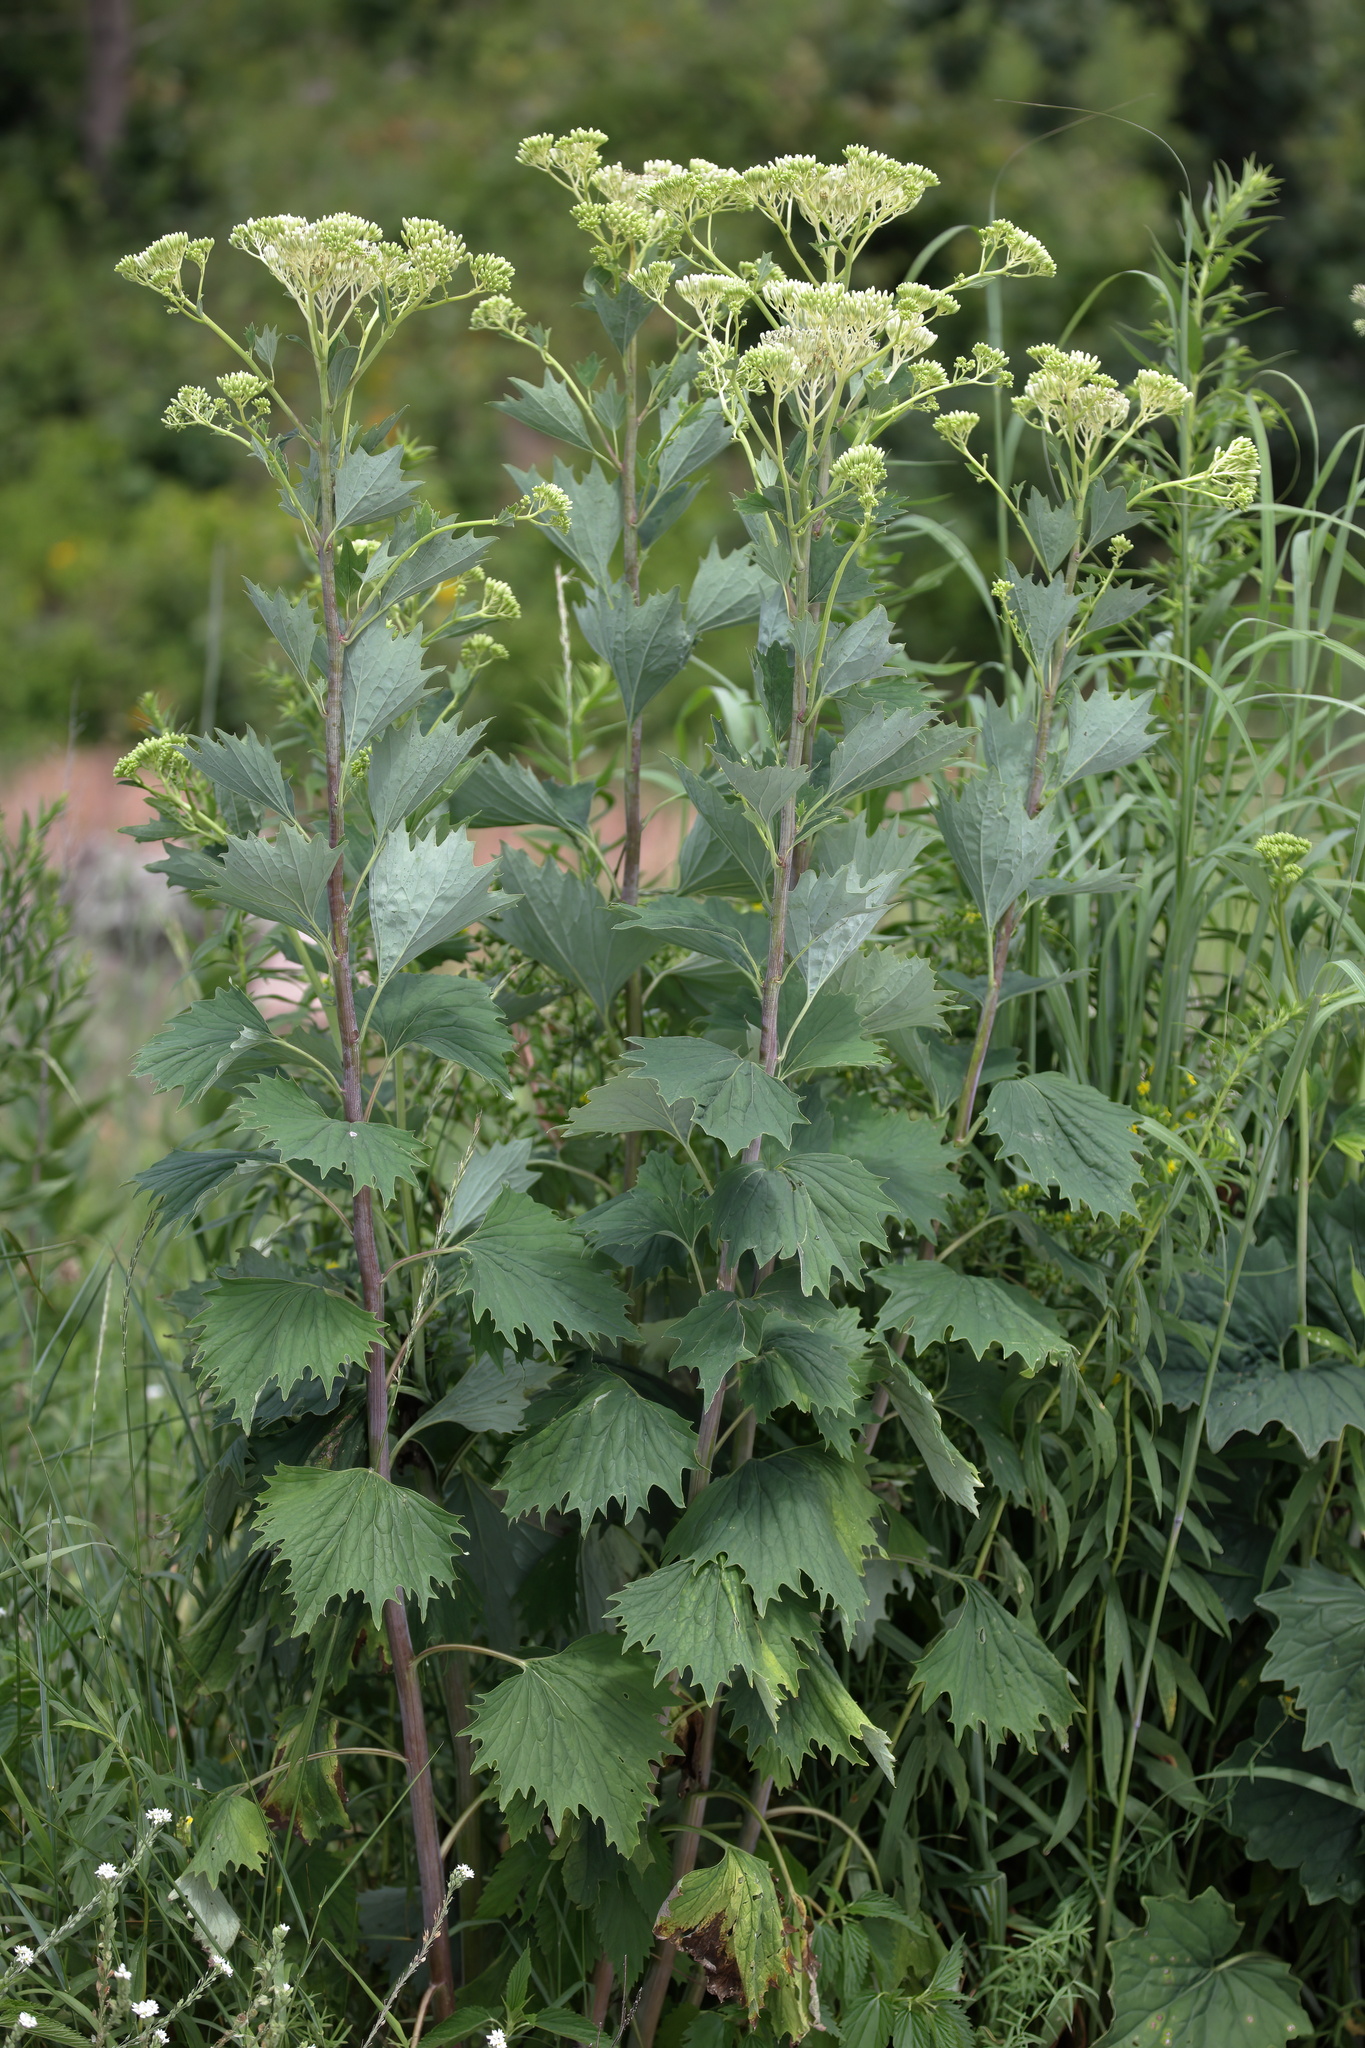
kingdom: Plantae
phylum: Tracheophyta
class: Magnoliopsida
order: Asterales
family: Asteraceae
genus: Arnoglossum
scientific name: Arnoglossum atriplicifolium
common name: Pale indian-plantain
